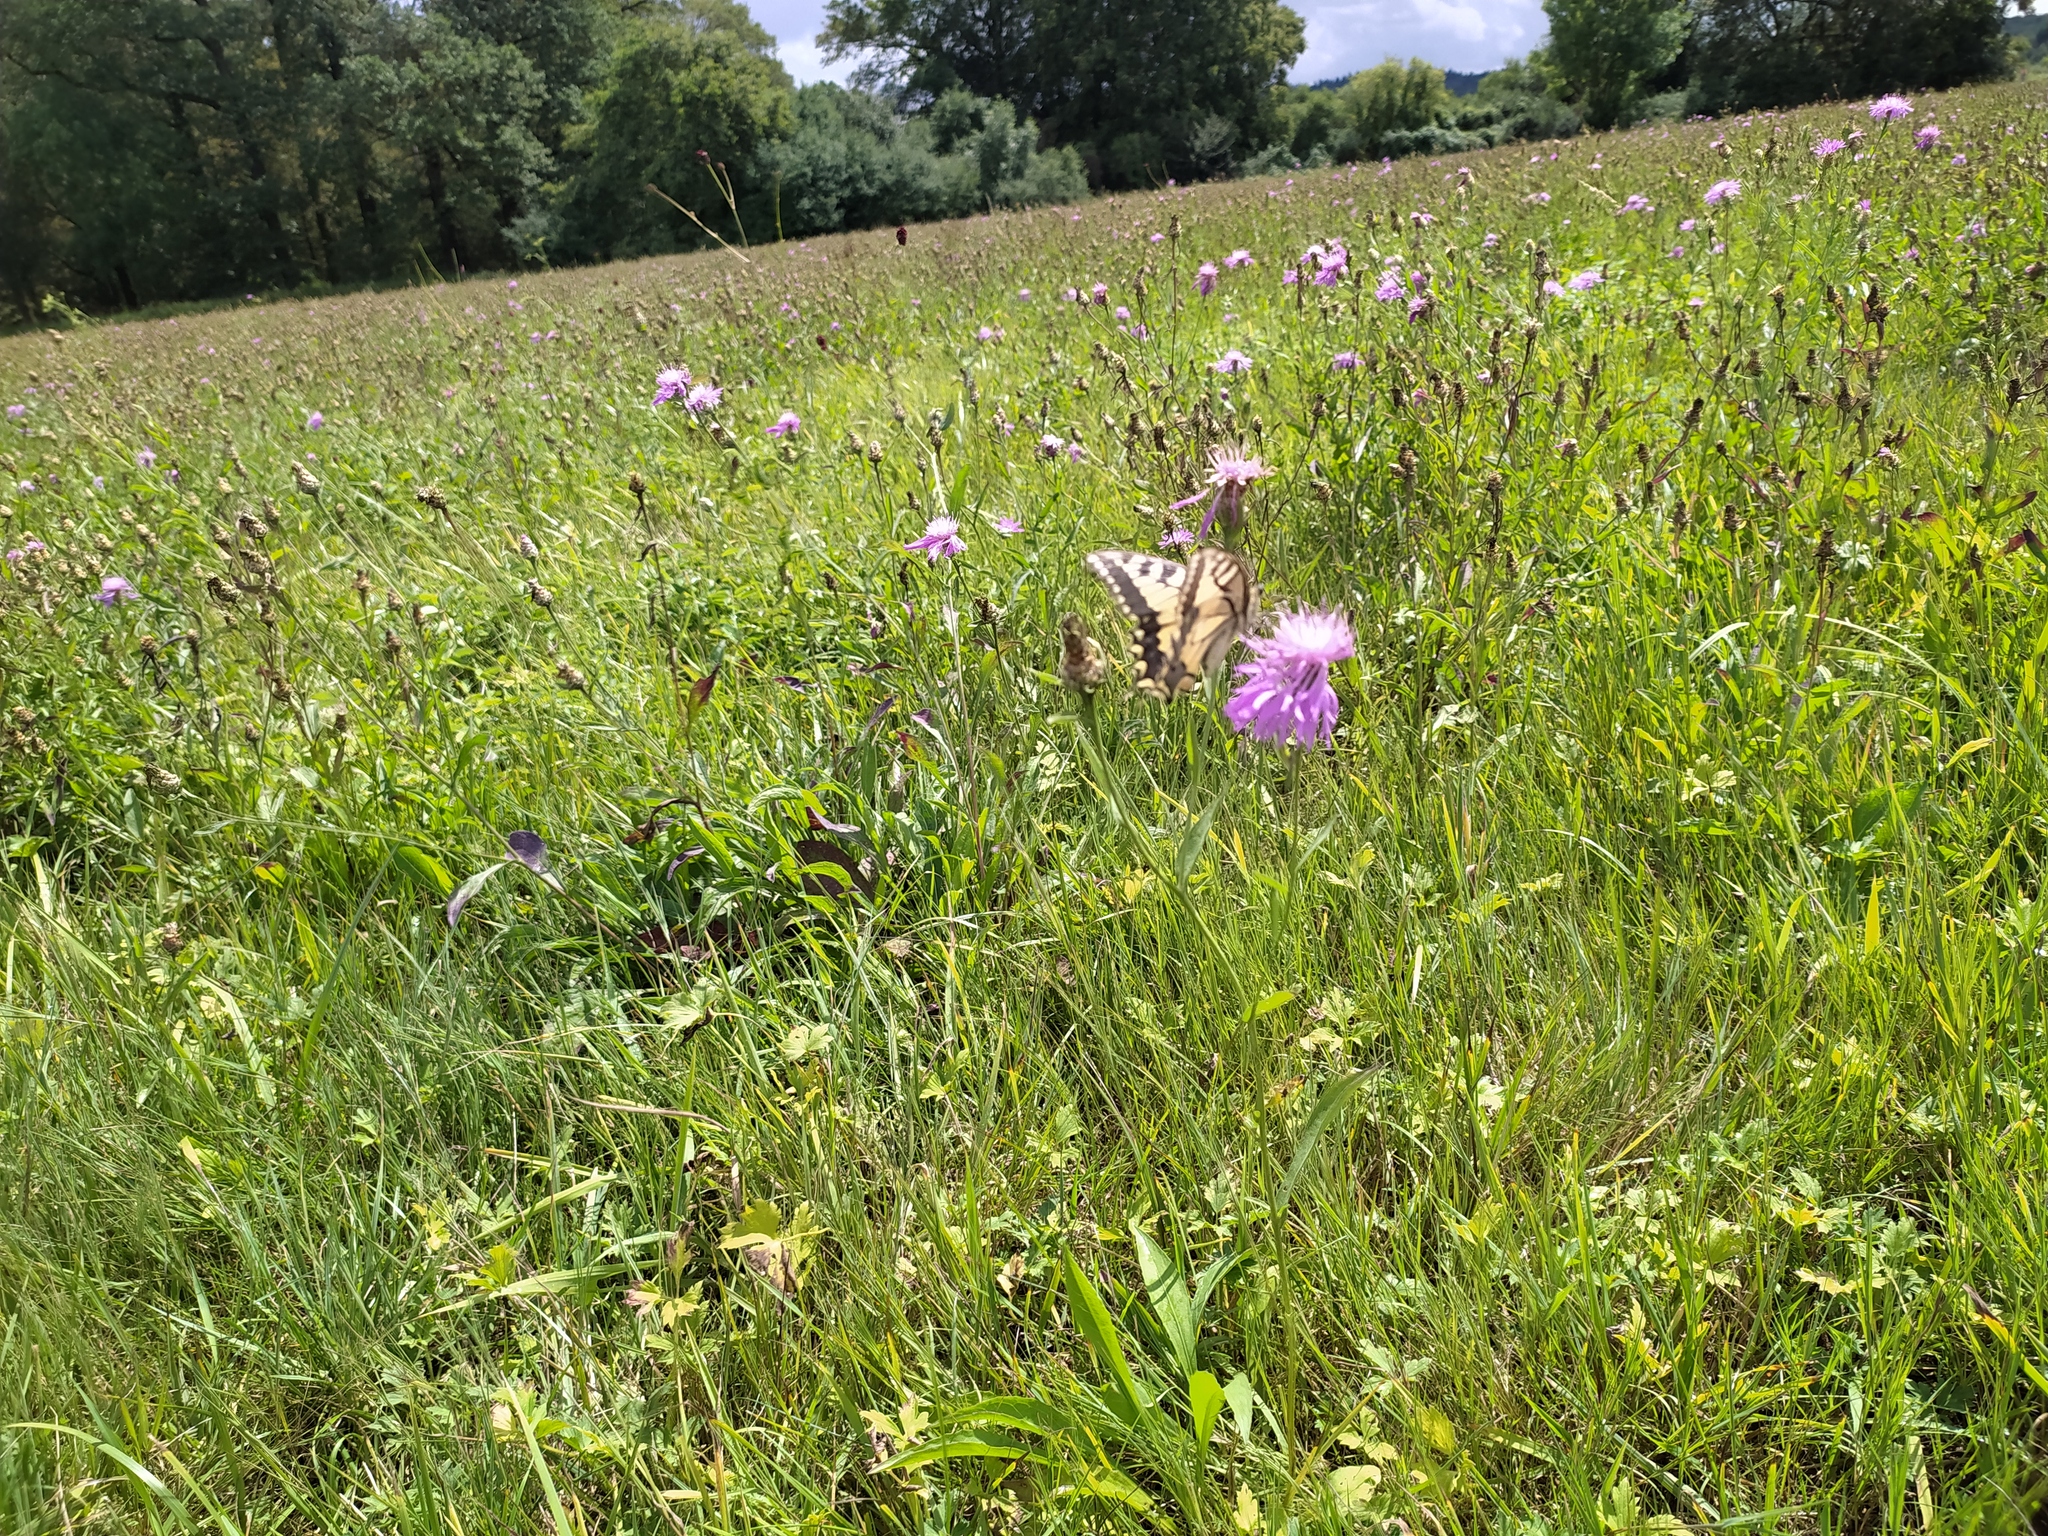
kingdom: Animalia
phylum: Arthropoda
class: Insecta
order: Lepidoptera
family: Papilionidae
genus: Papilio
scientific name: Papilio machaon
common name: Swallowtail
